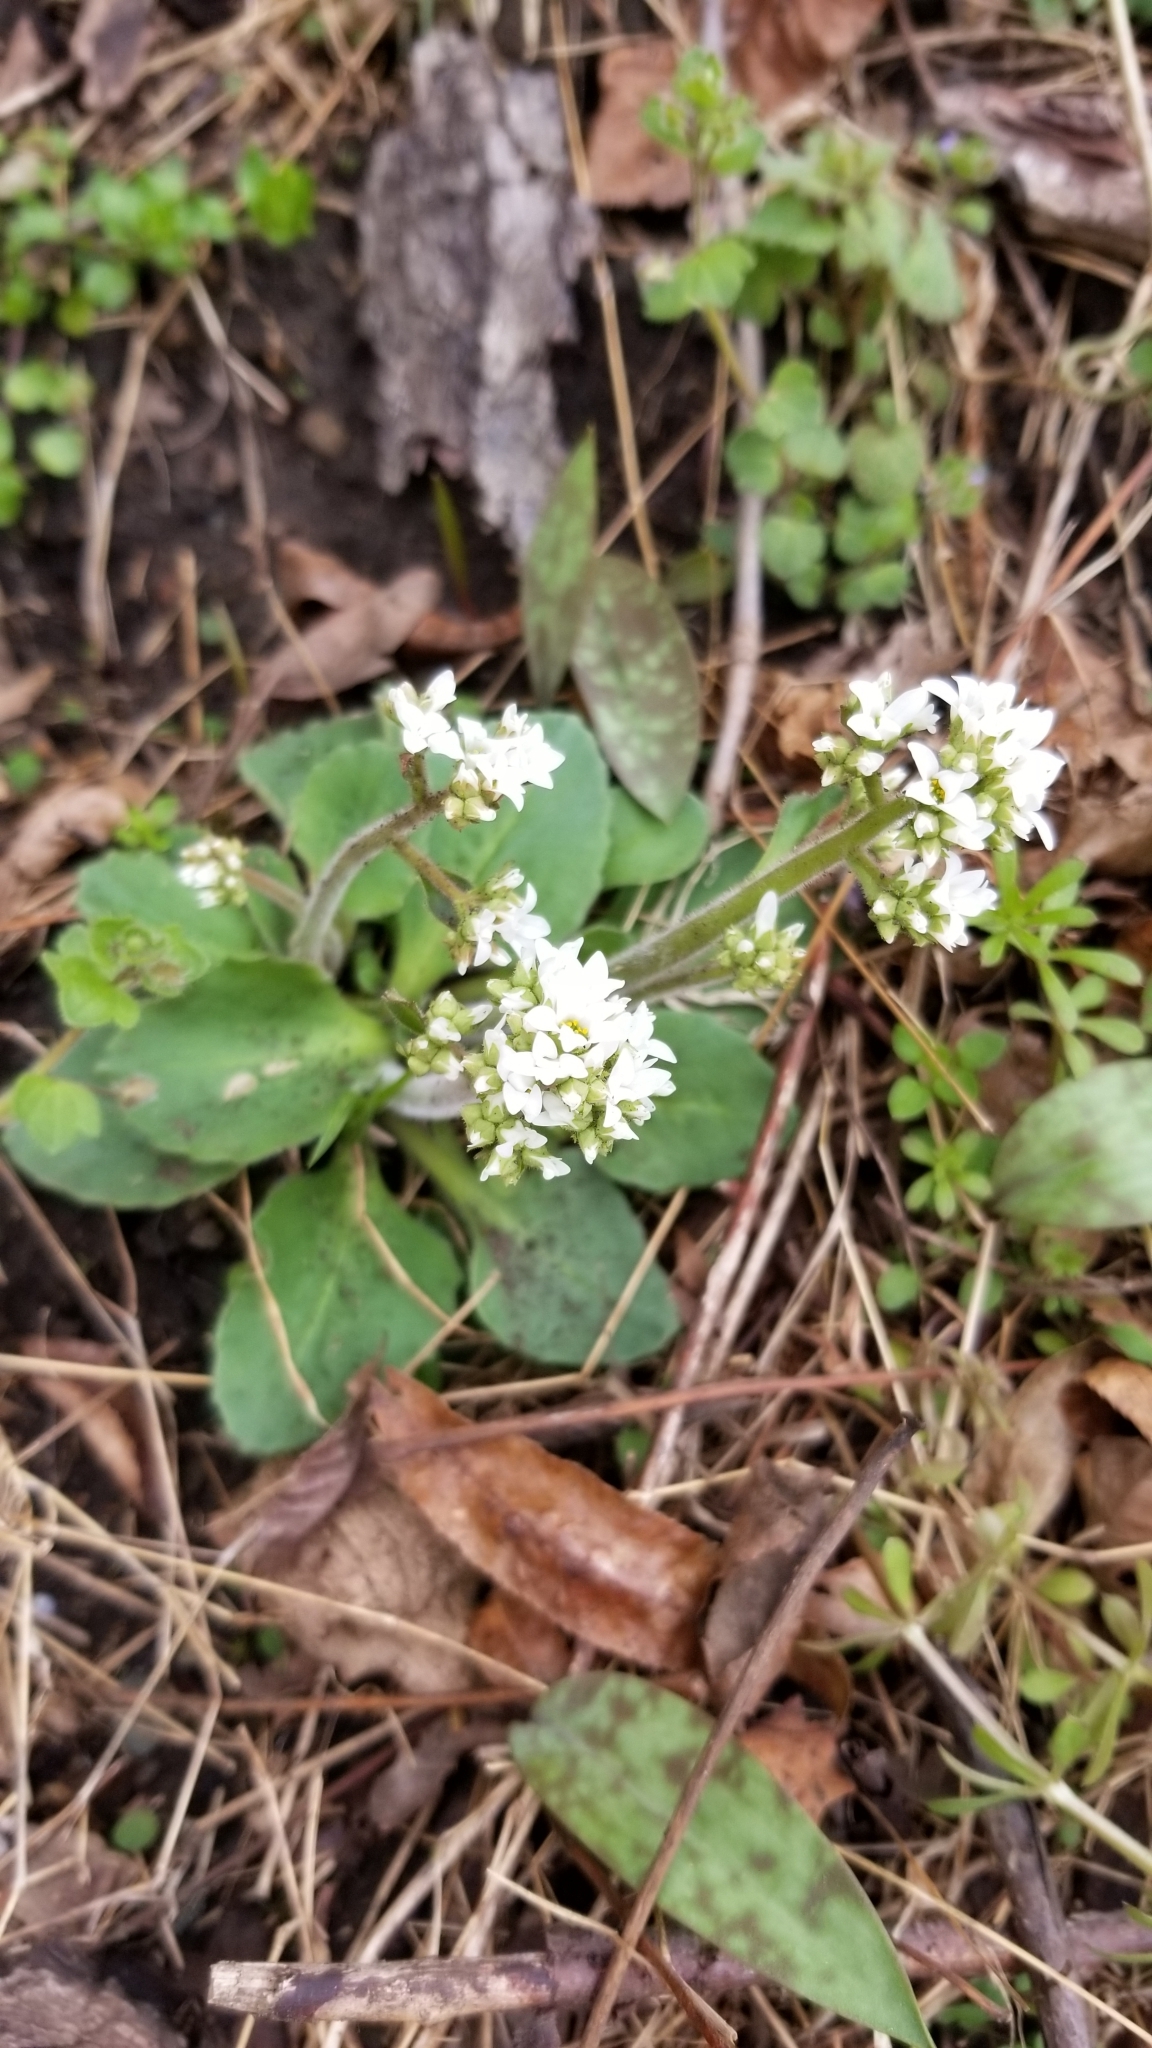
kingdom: Plantae
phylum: Tracheophyta
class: Magnoliopsida
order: Saxifragales
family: Saxifragaceae
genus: Micranthes
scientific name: Micranthes virginiensis
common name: Early saxifrage
